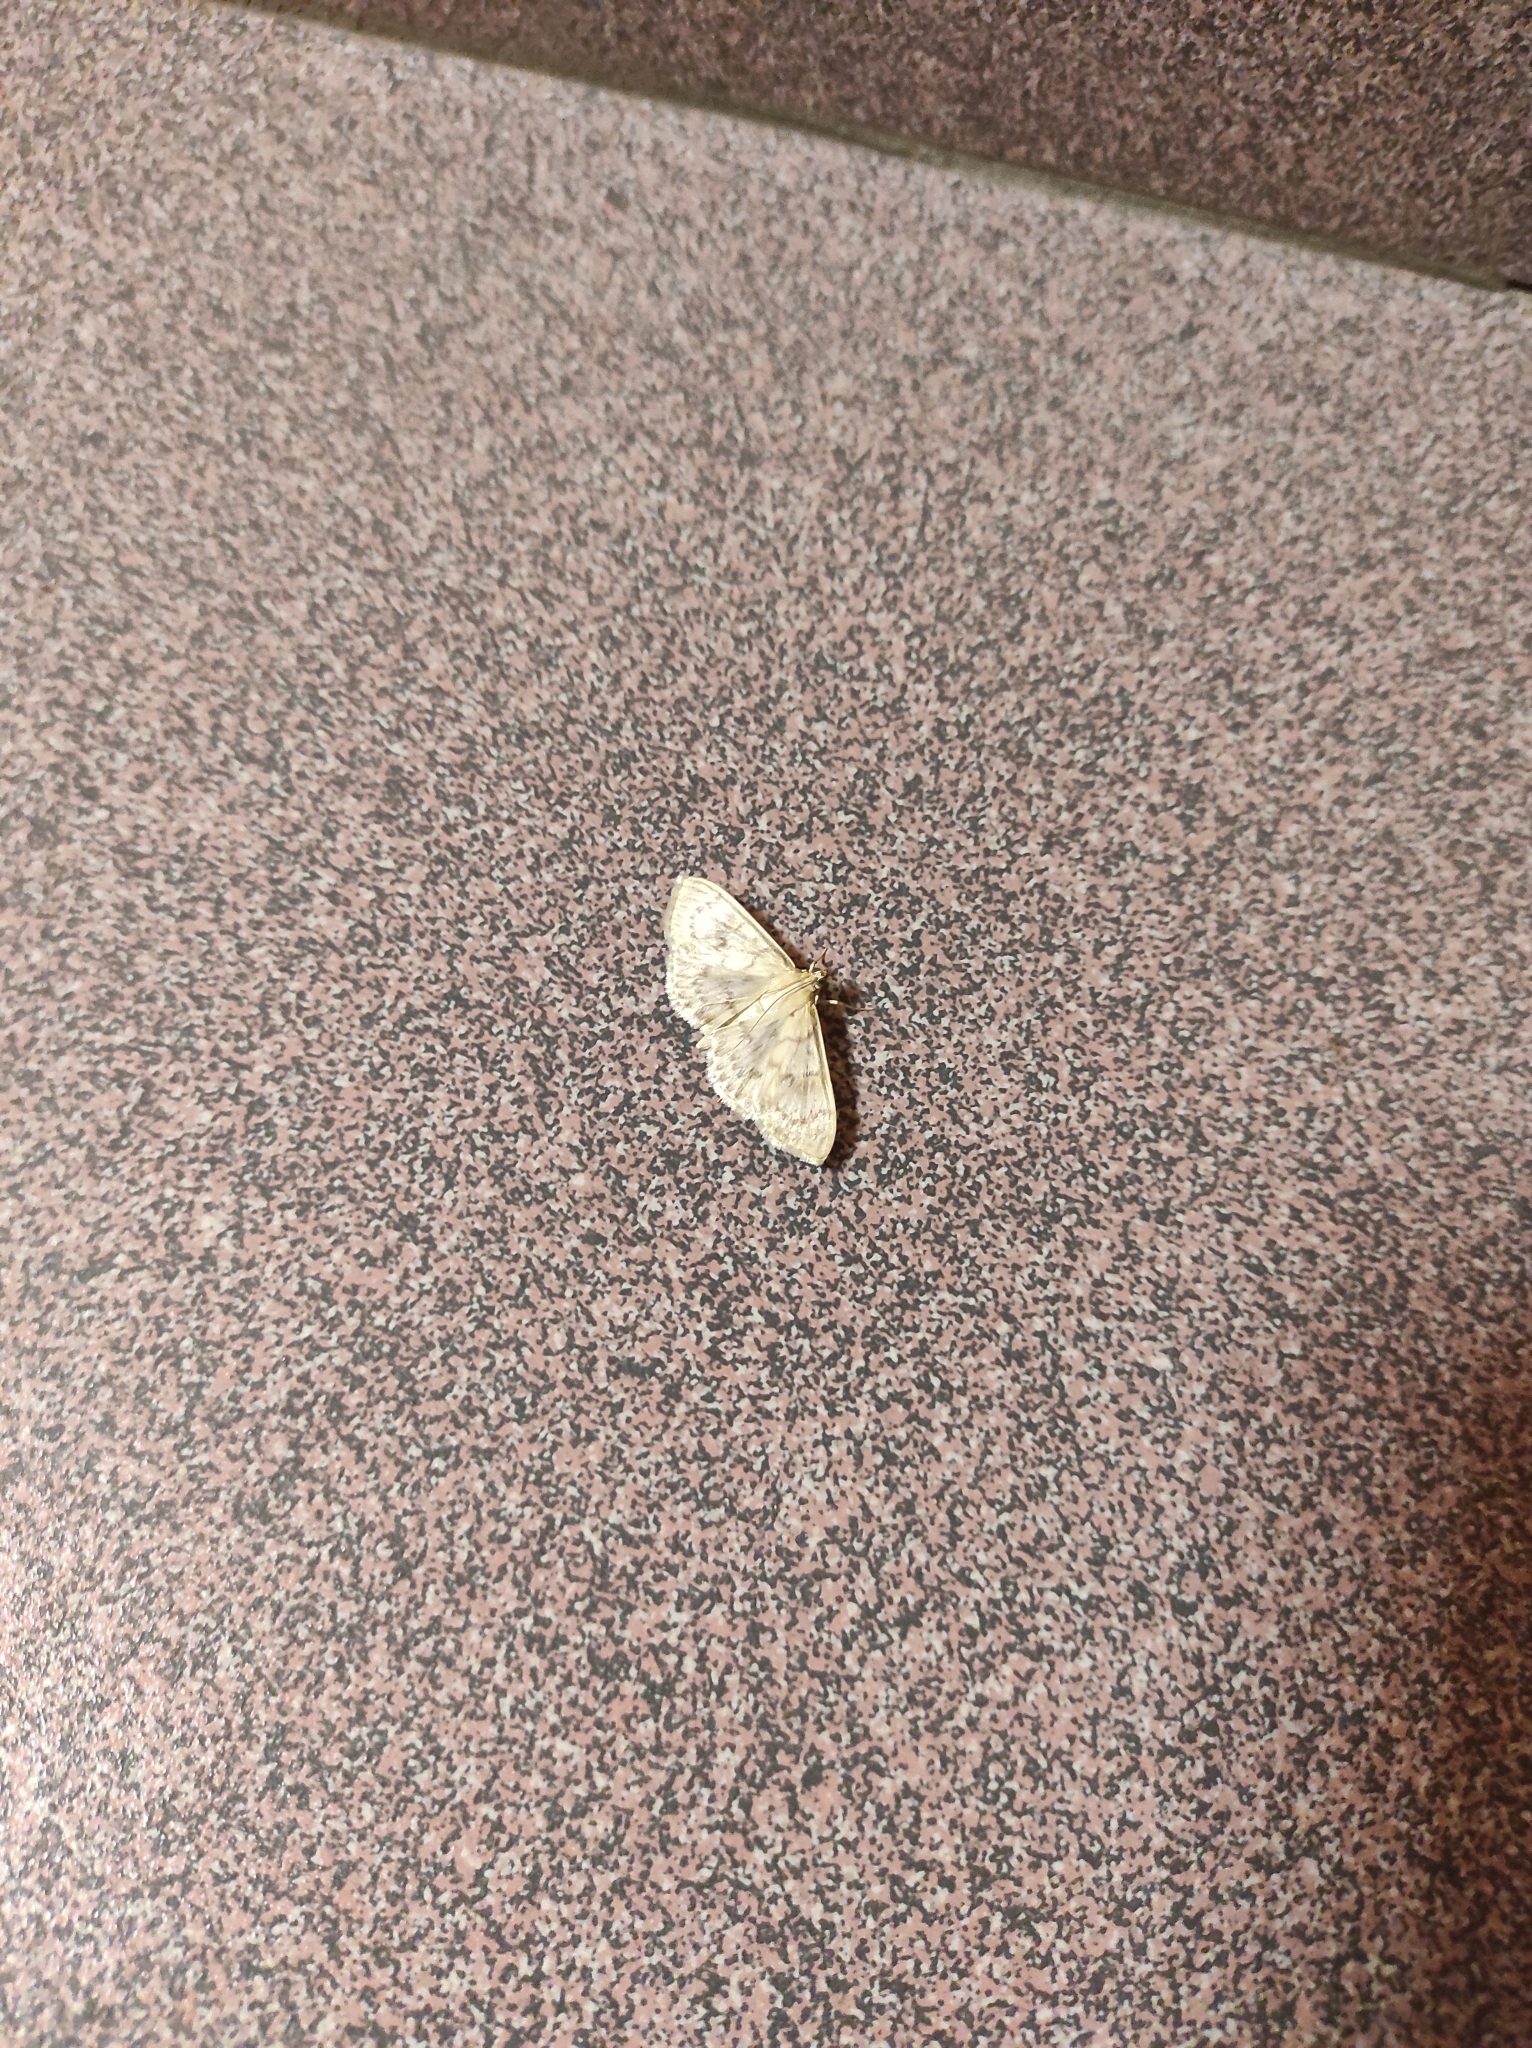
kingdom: Animalia
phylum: Arthropoda
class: Insecta
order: Lepidoptera
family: Crambidae
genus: Patania
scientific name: Patania ruralis
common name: Mother of pearl
